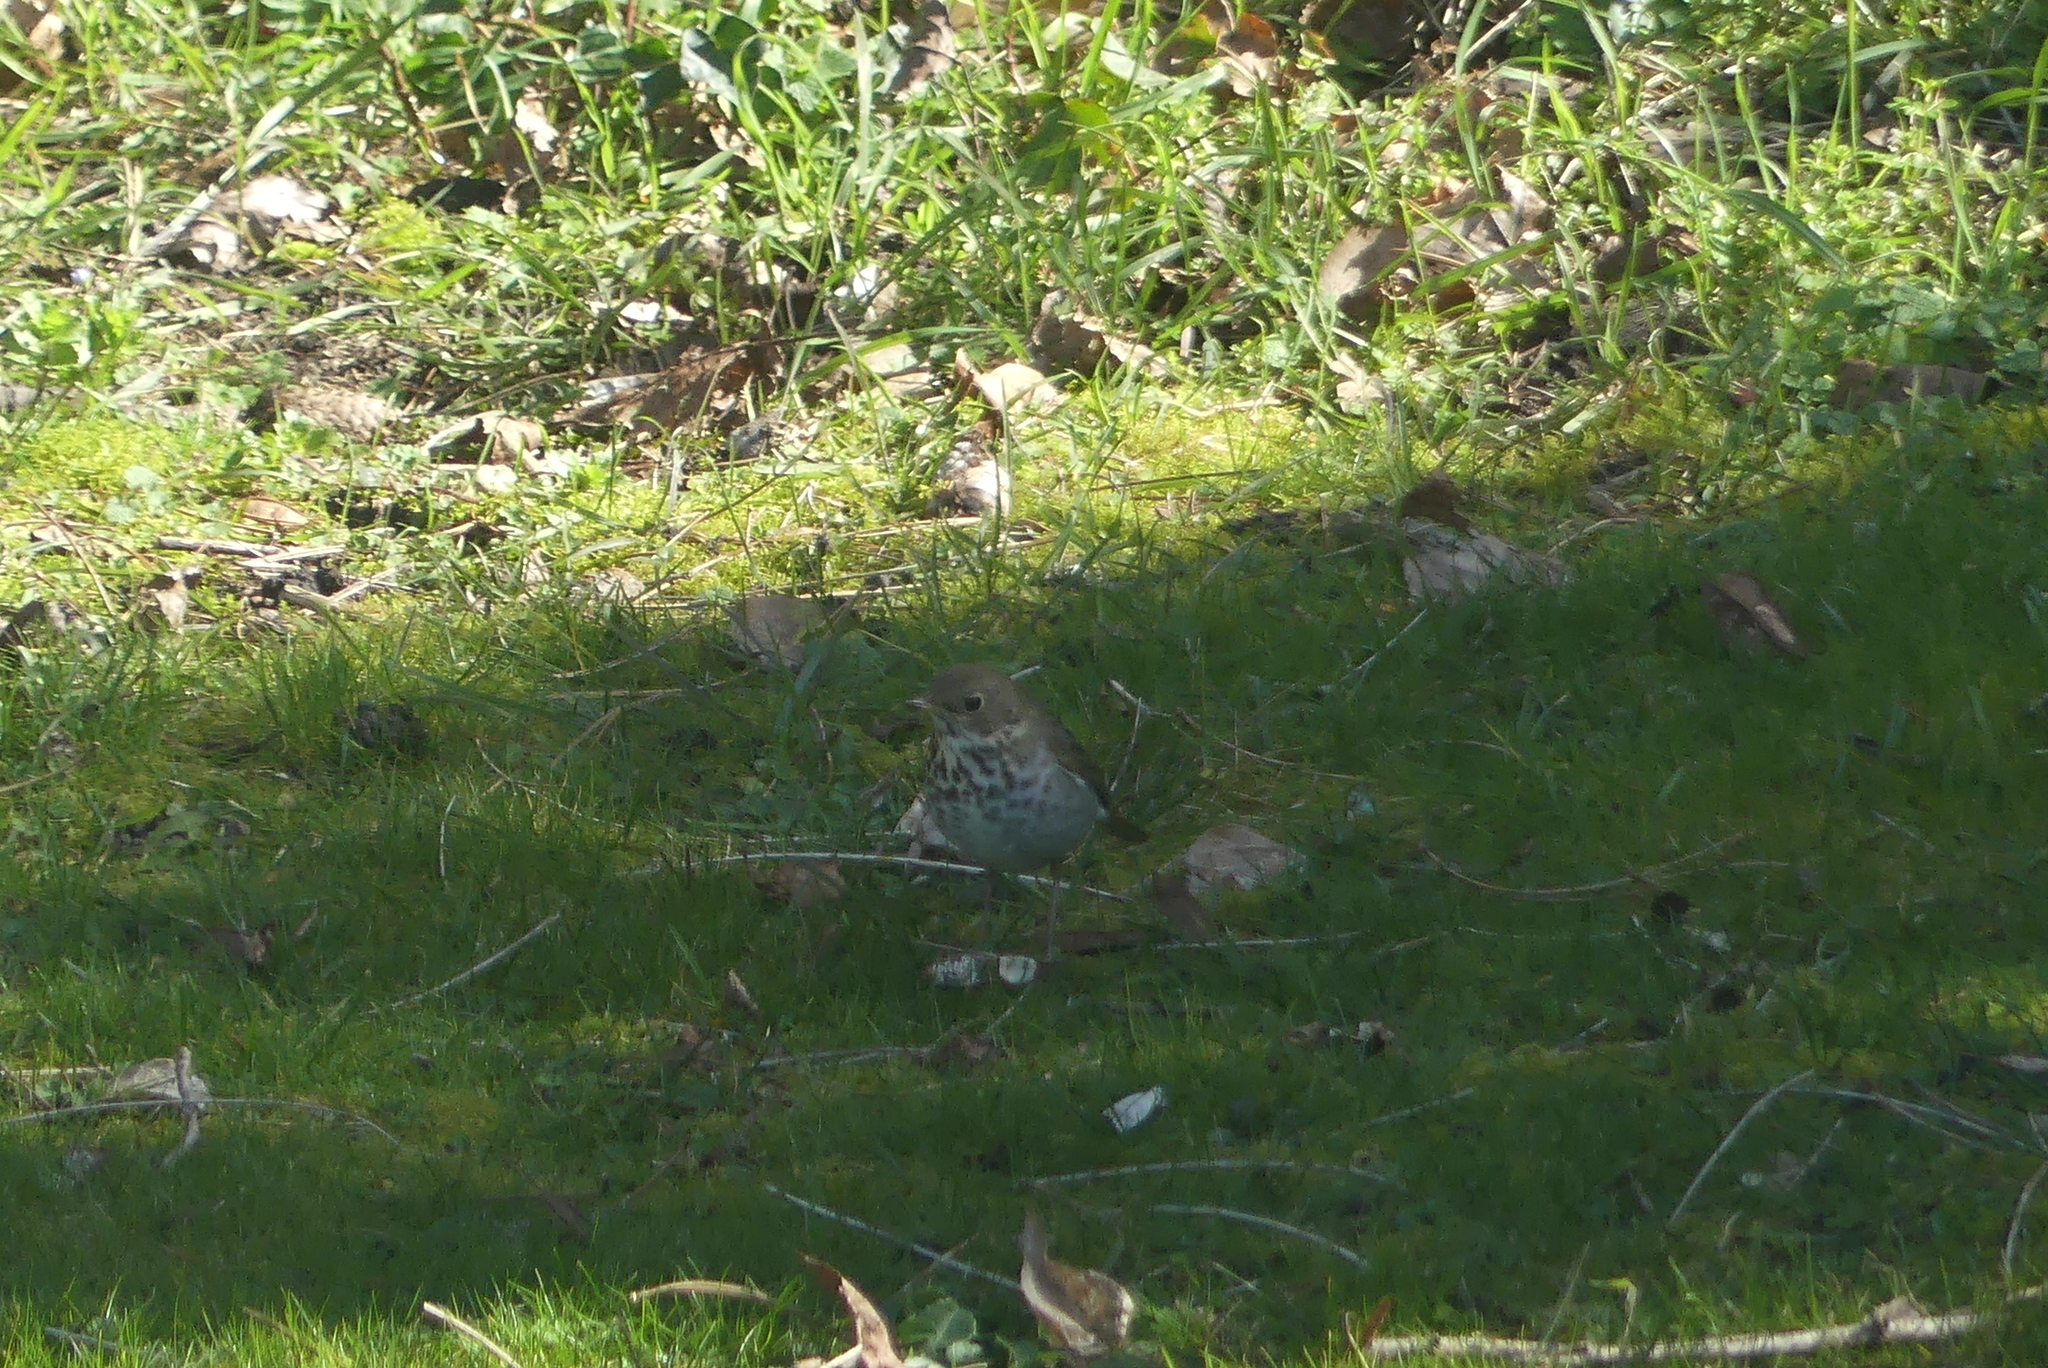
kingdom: Animalia
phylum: Chordata
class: Aves
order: Passeriformes
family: Turdidae
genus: Catharus
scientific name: Catharus guttatus
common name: Hermit thrush
